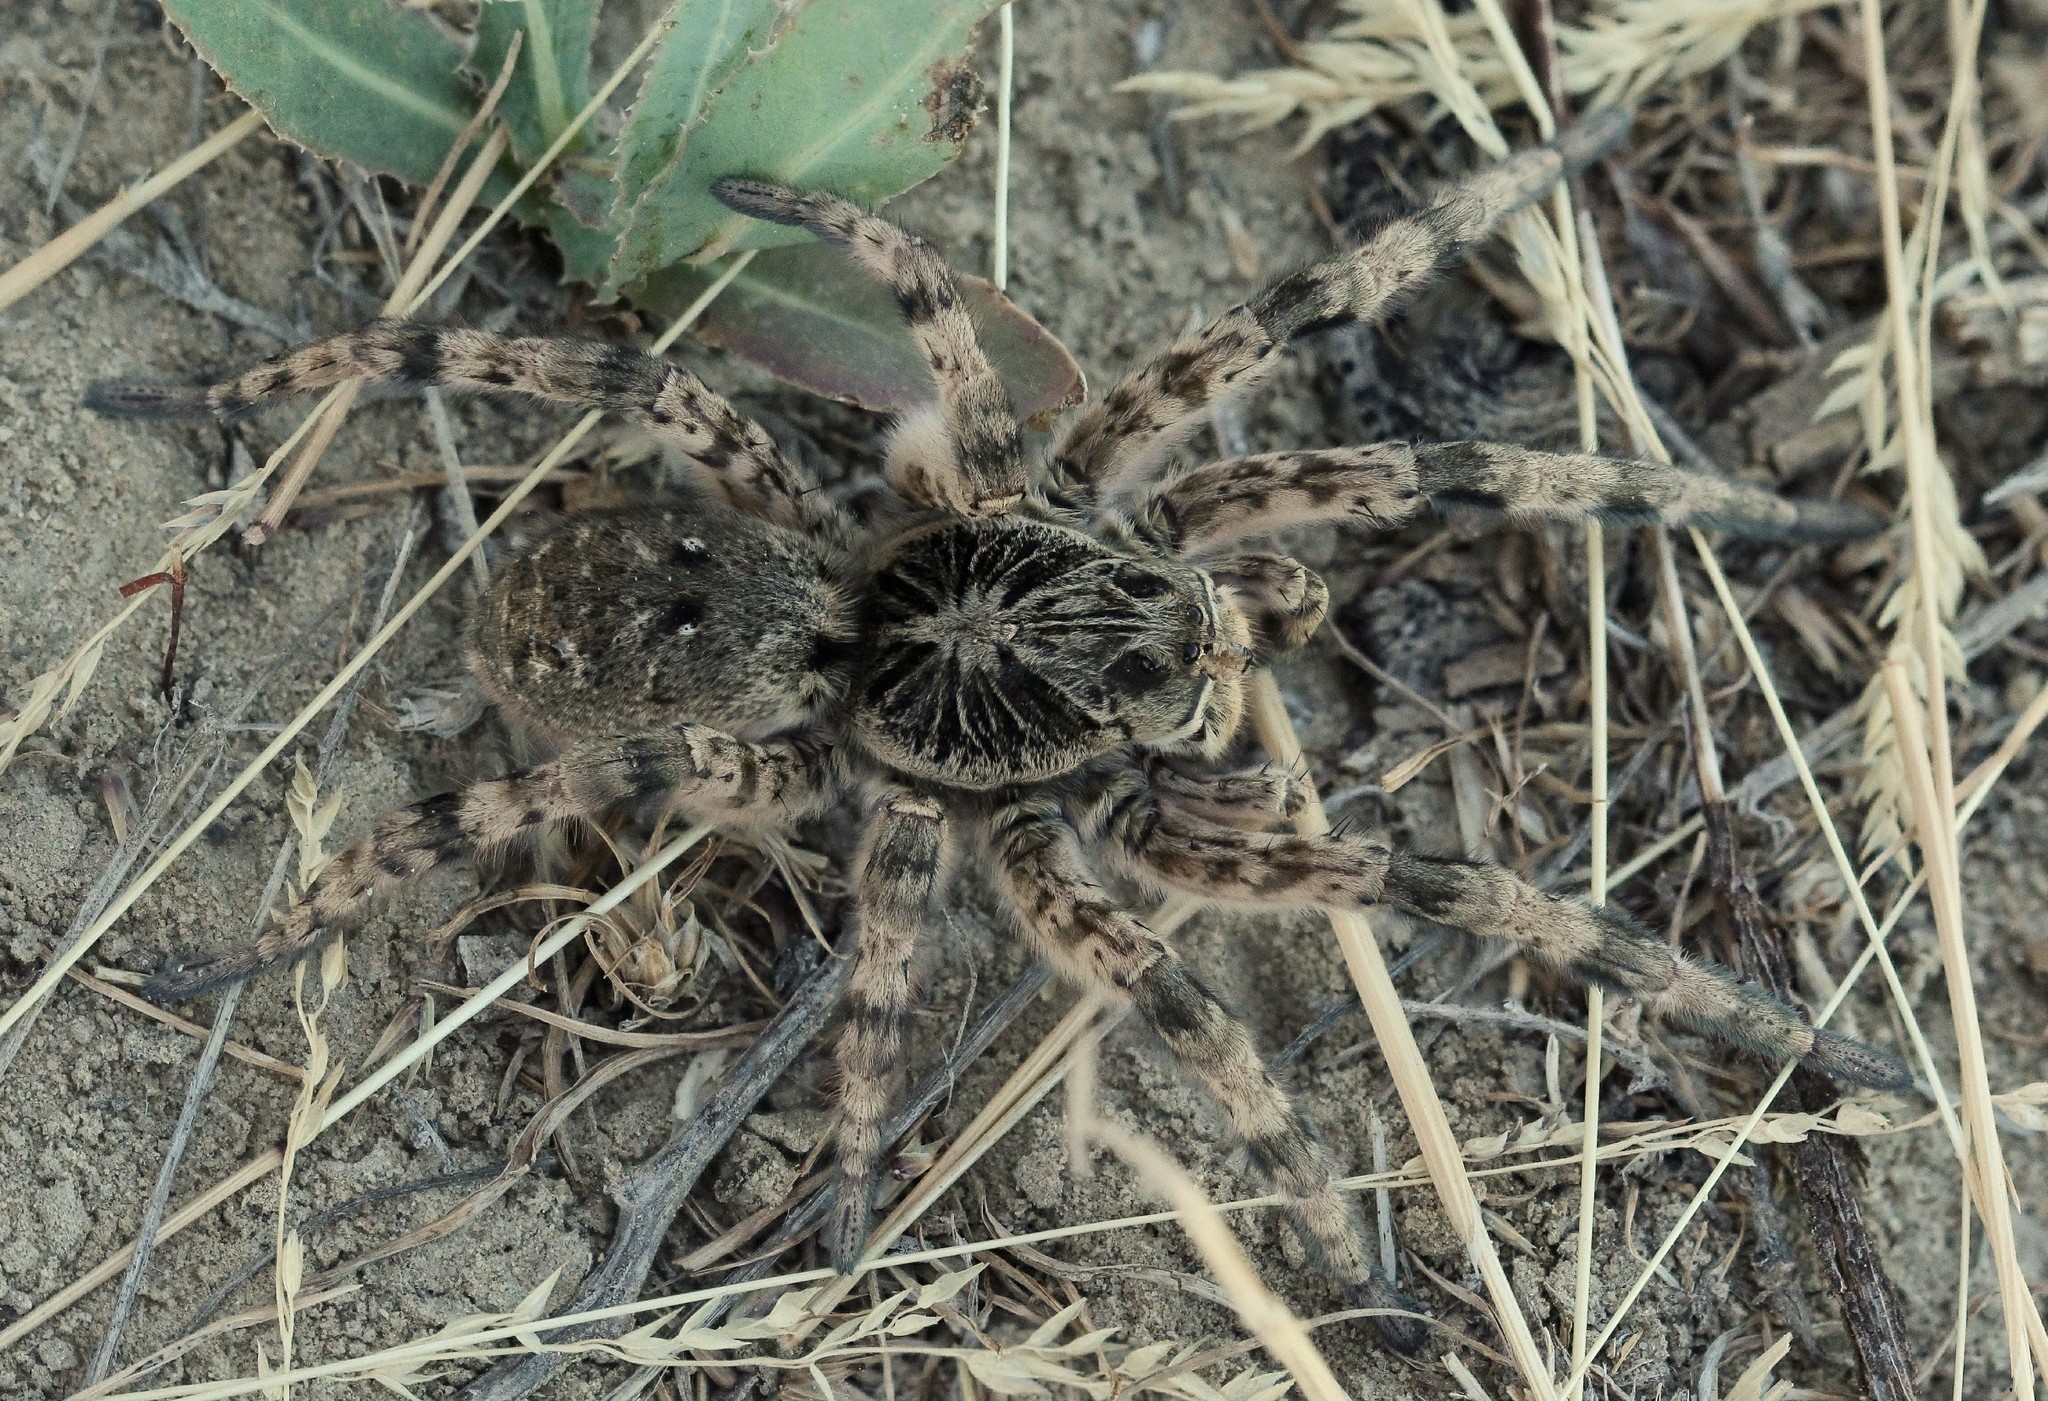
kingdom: Animalia
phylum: Arthropoda
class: Arachnida
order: Araneae
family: Lycosidae
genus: Lycosa
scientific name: Lycosa singoriensis
